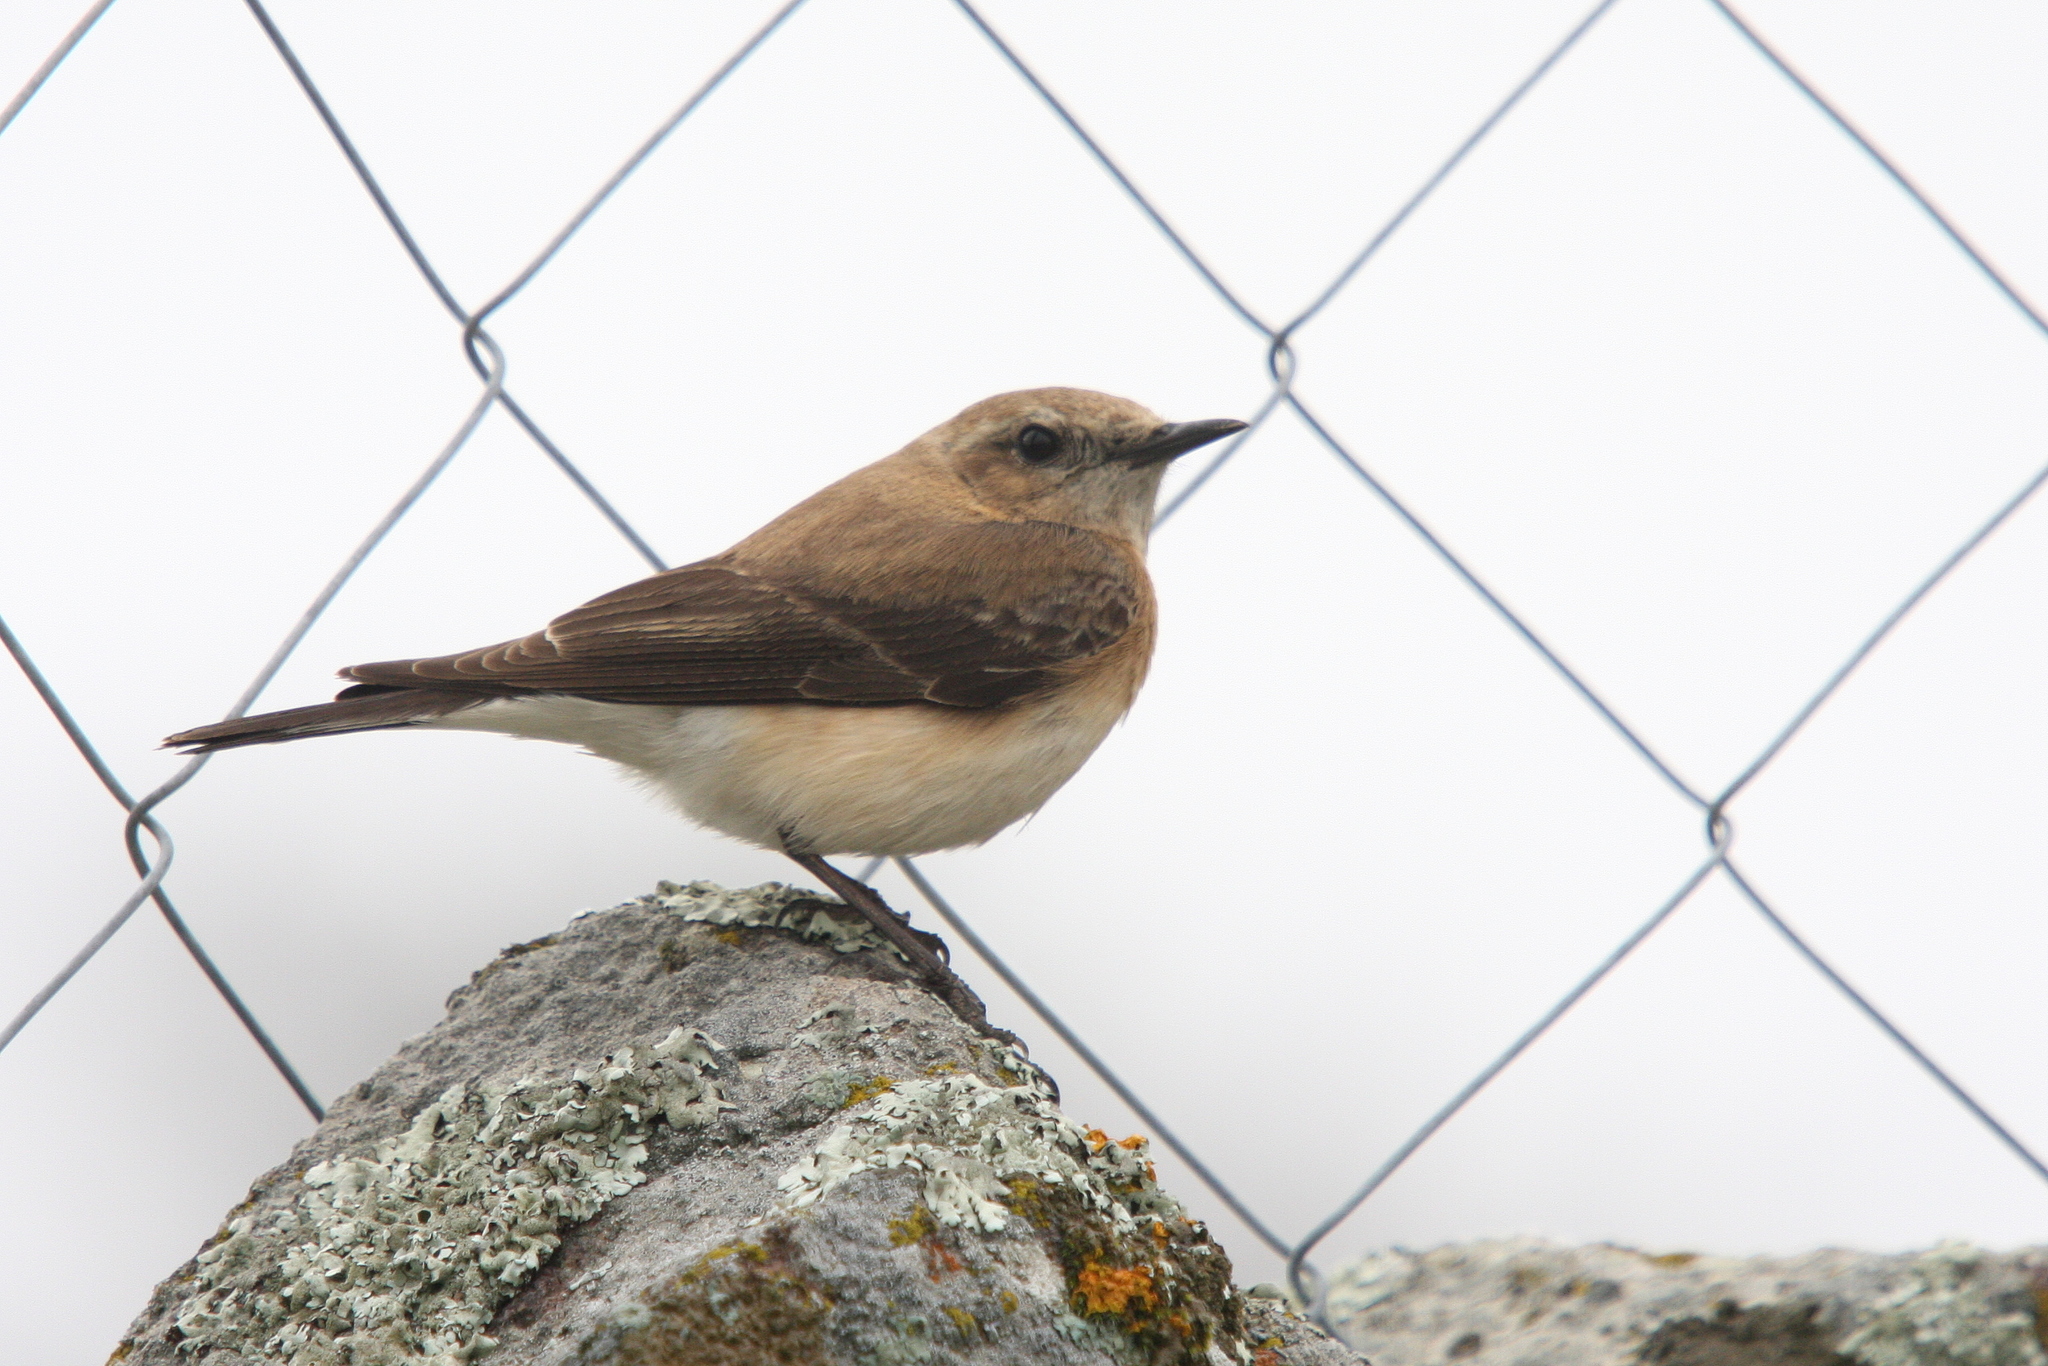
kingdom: Animalia
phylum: Chordata
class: Aves
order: Passeriformes
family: Muscicapidae
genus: Oenanthe
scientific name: Oenanthe hispanica
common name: Black-eared wheatear
